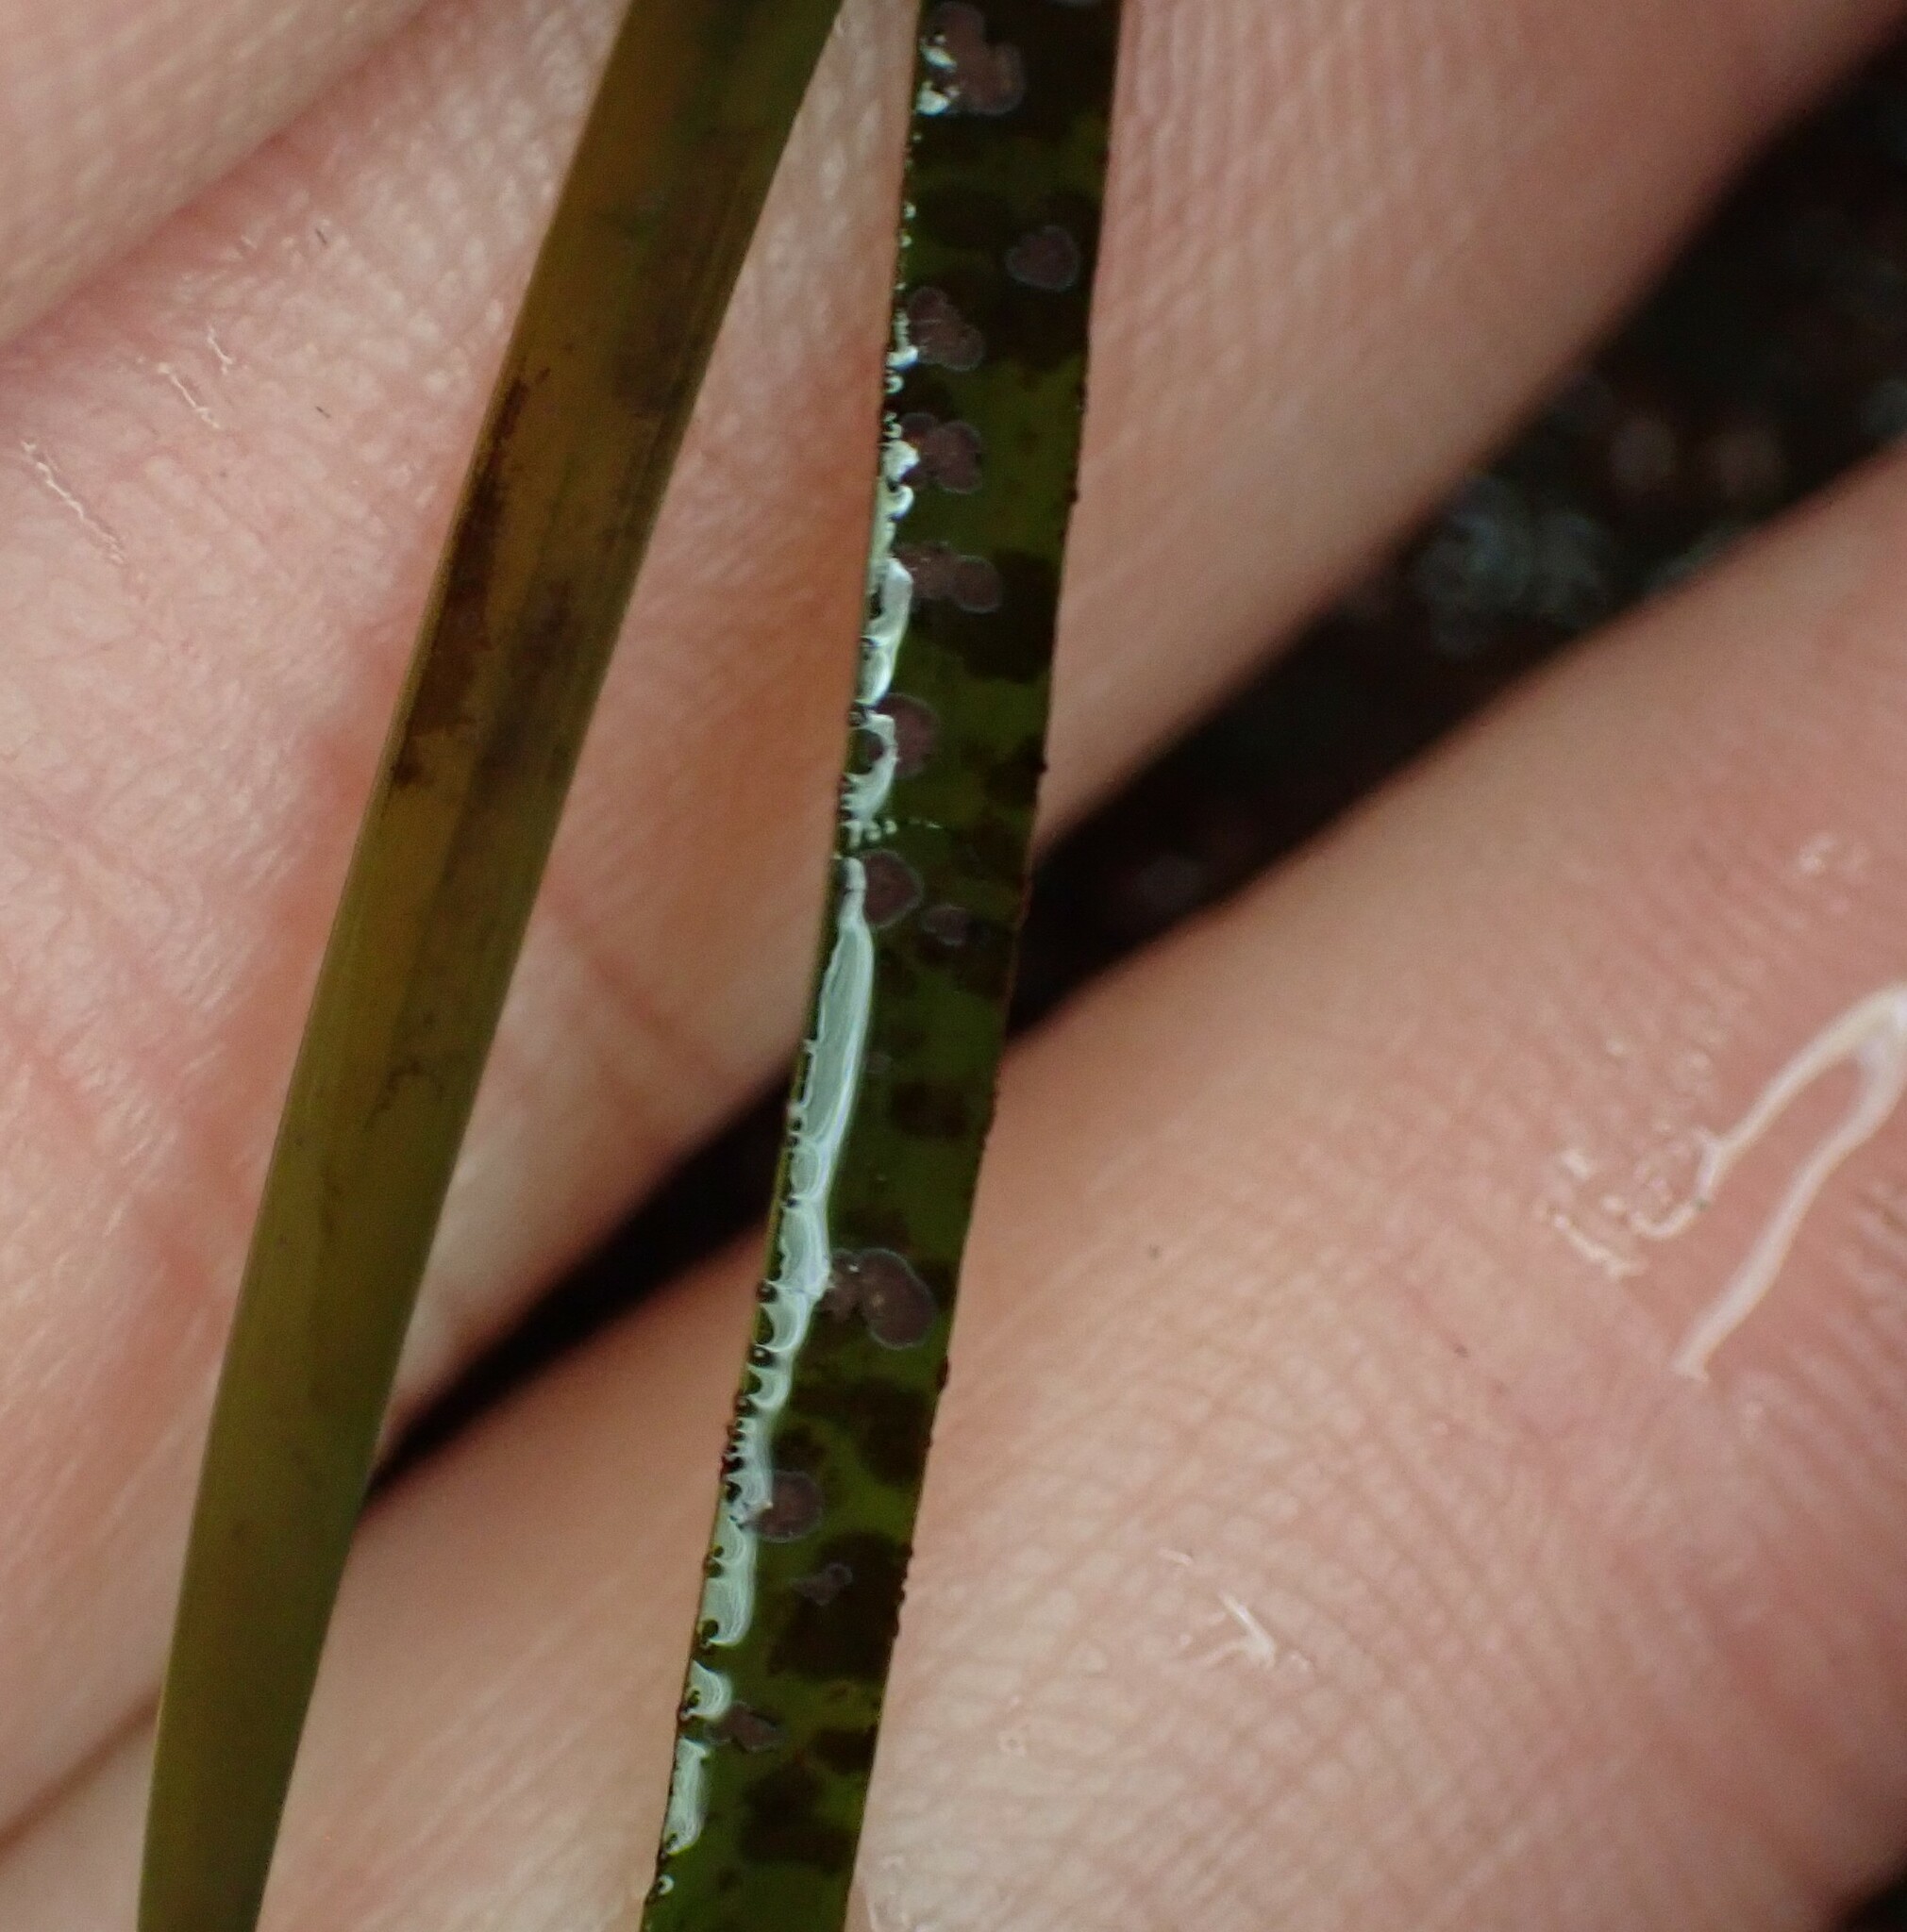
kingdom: Plantae
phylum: Rhodophyta
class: Florideophyceae
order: Corallinales
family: Hapalidiaceae
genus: Melobesia
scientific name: Melobesia mediocris
